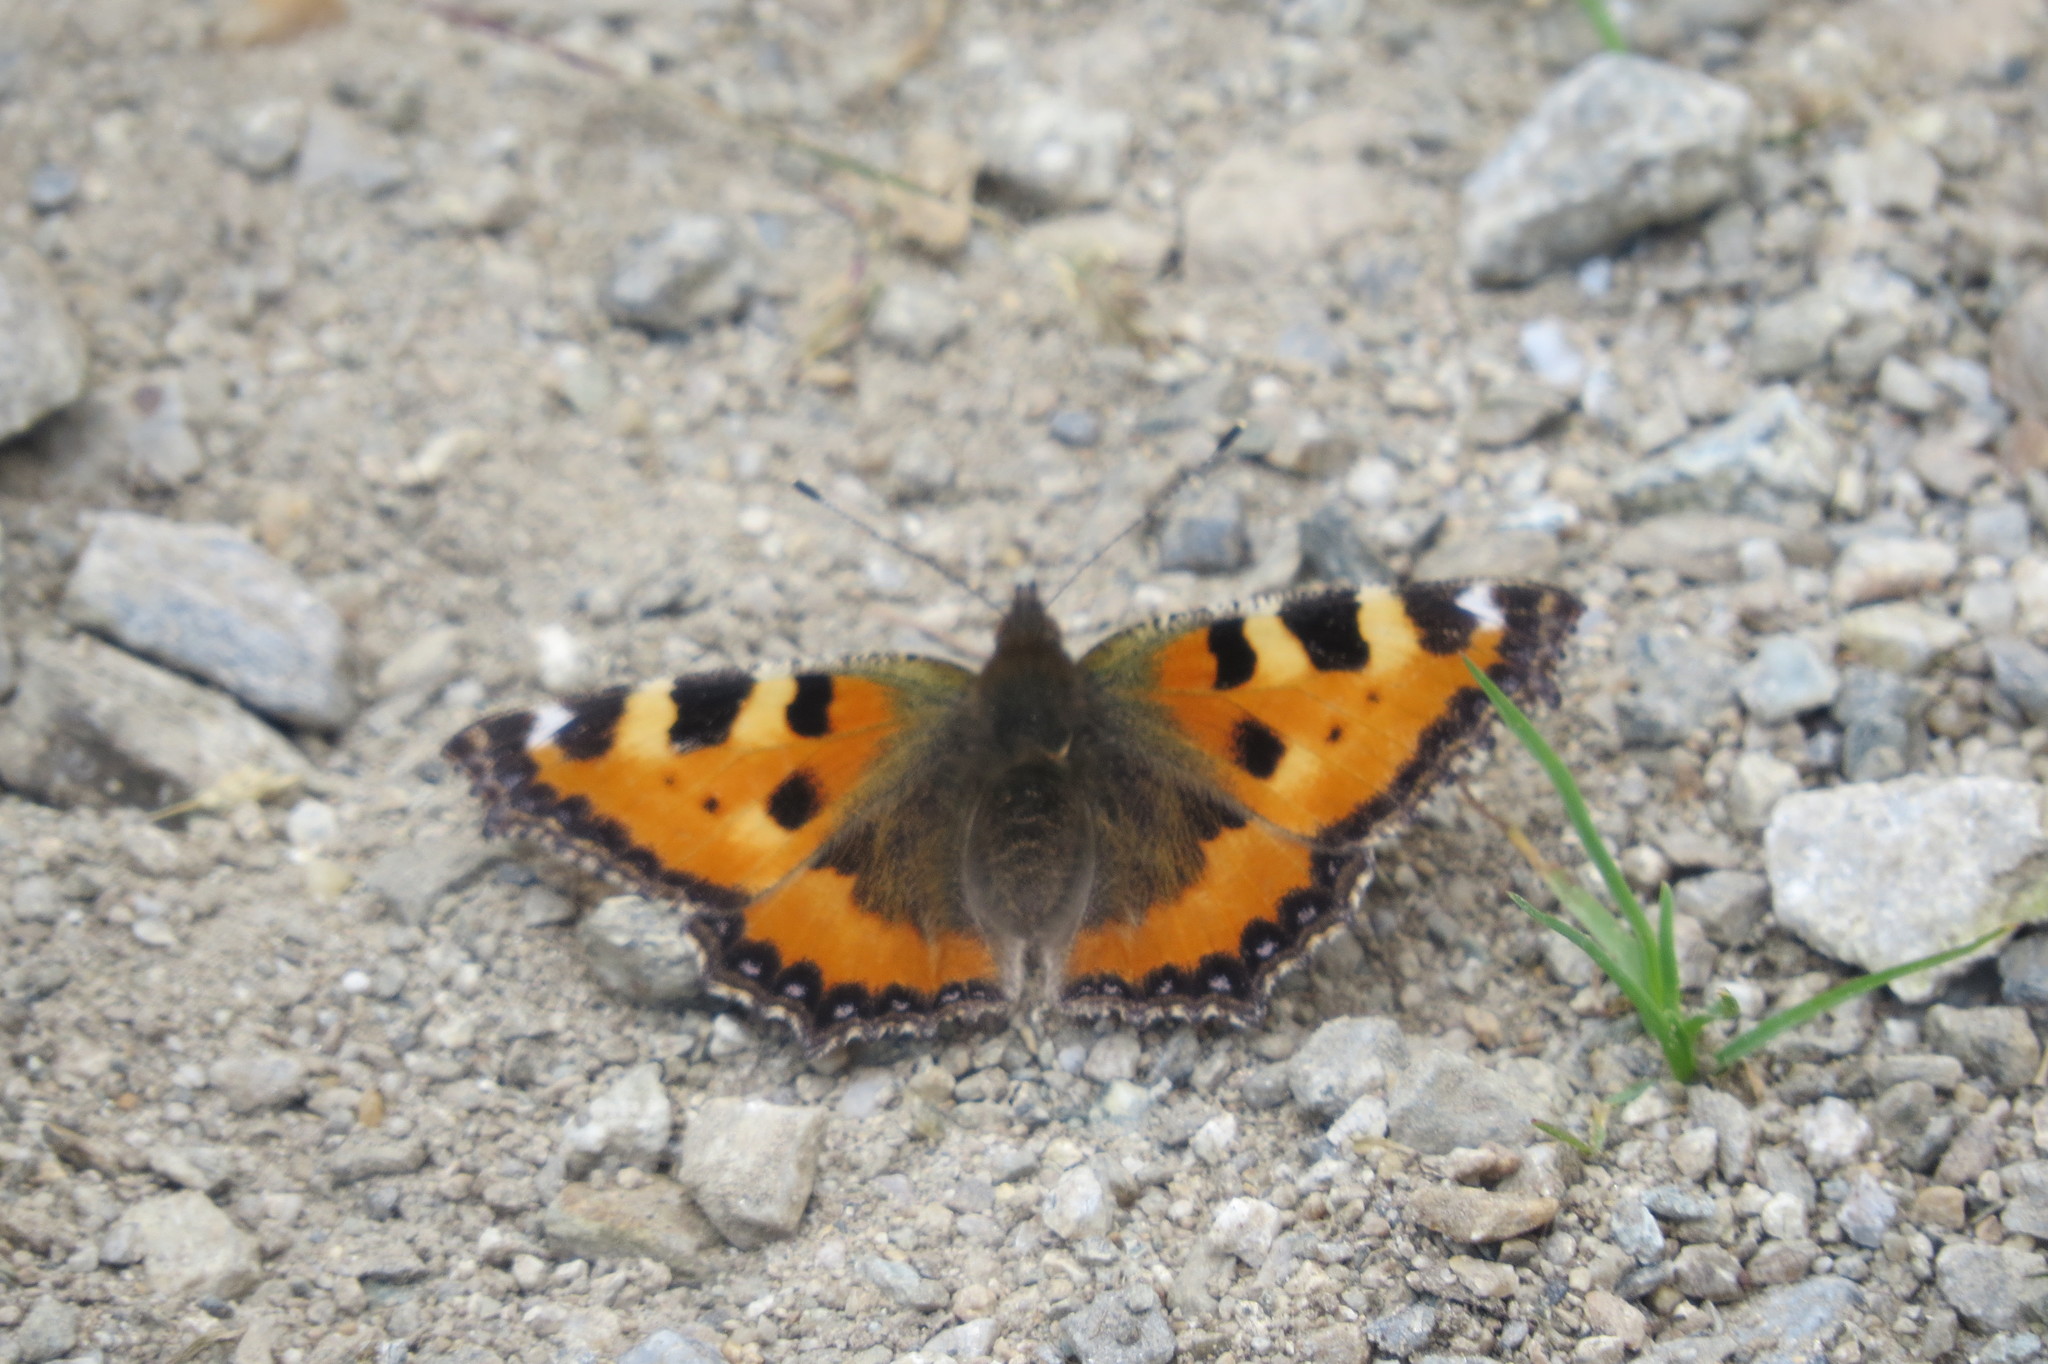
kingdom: Animalia
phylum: Arthropoda
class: Insecta
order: Lepidoptera
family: Nymphalidae
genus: Aglais
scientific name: Aglais urticae
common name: Small tortoiseshell
